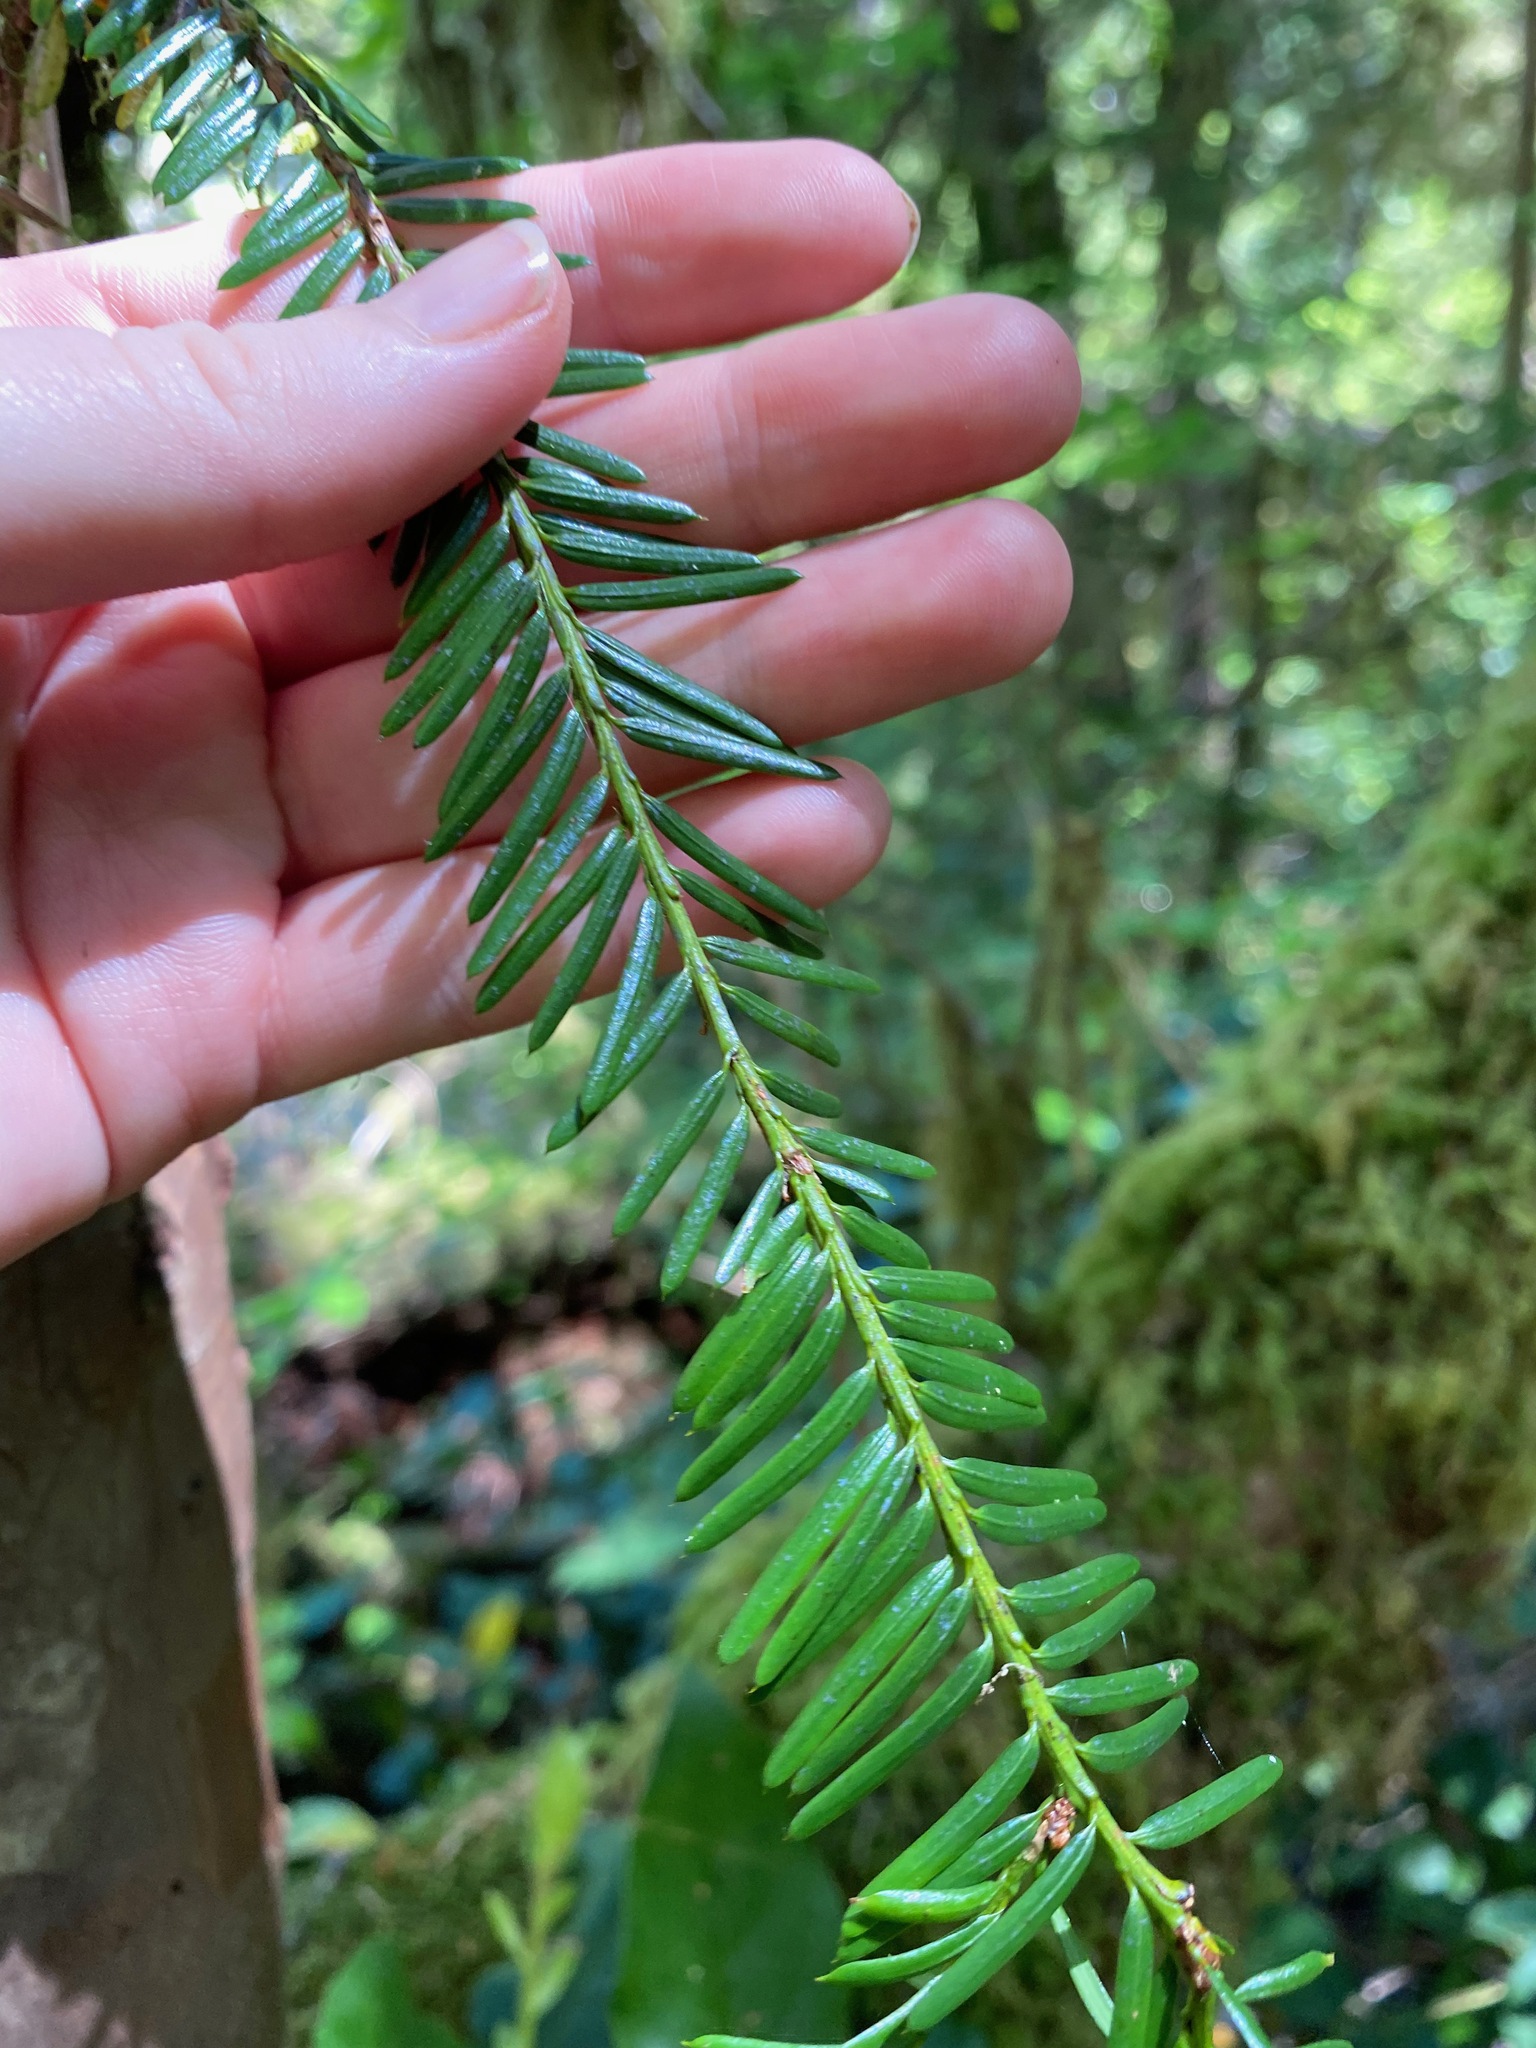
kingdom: Plantae
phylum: Tracheophyta
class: Pinopsida
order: Pinales
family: Taxaceae
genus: Taxus
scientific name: Taxus brevifolia
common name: Pacific yew
